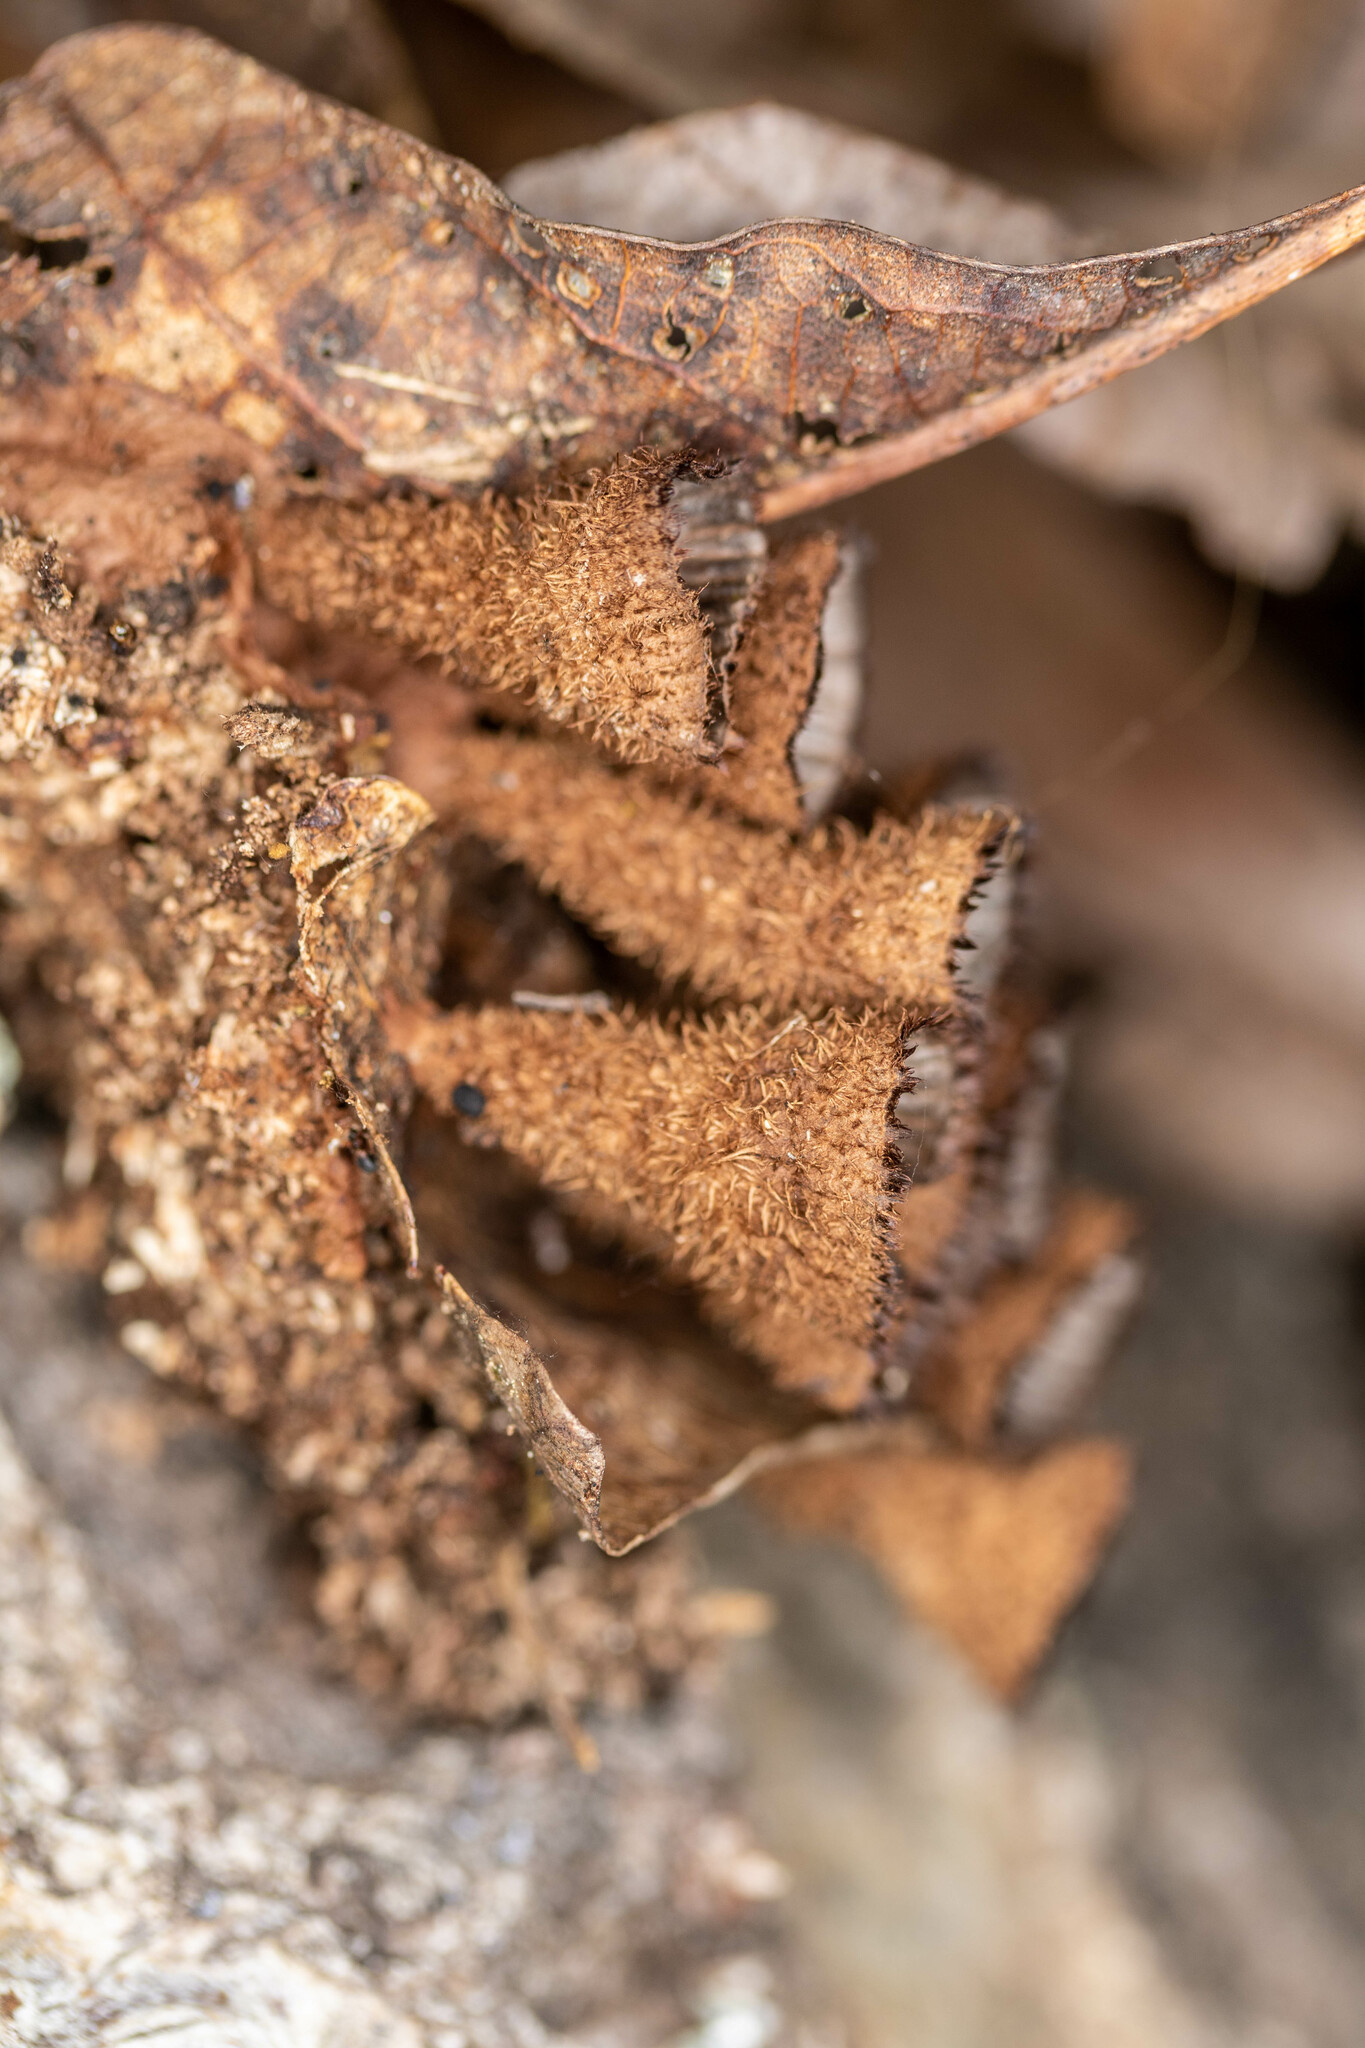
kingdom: Fungi
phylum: Basidiomycota
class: Agaricomycetes
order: Agaricales
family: Agaricaceae
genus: Cyathus
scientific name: Cyathus striatus
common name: Fluted bird's nest
